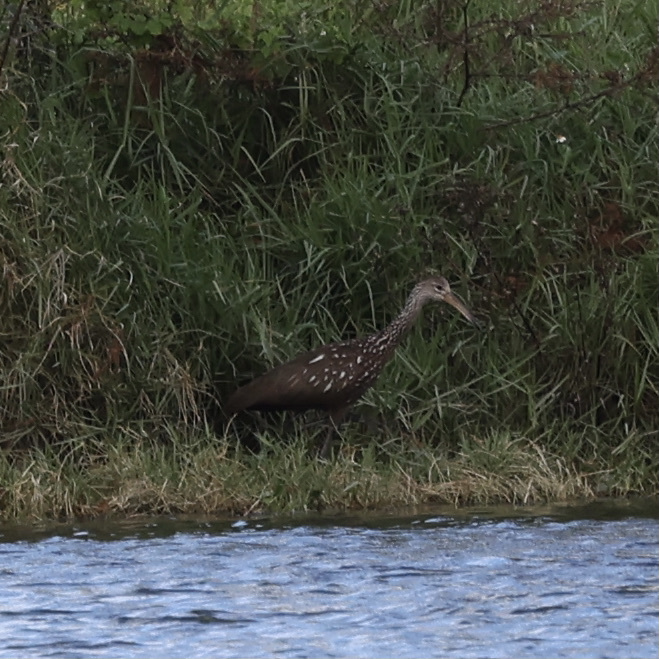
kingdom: Animalia
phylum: Chordata
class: Aves
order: Gruiformes
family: Aramidae
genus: Aramus
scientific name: Aramus guarauna
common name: Limpkin
